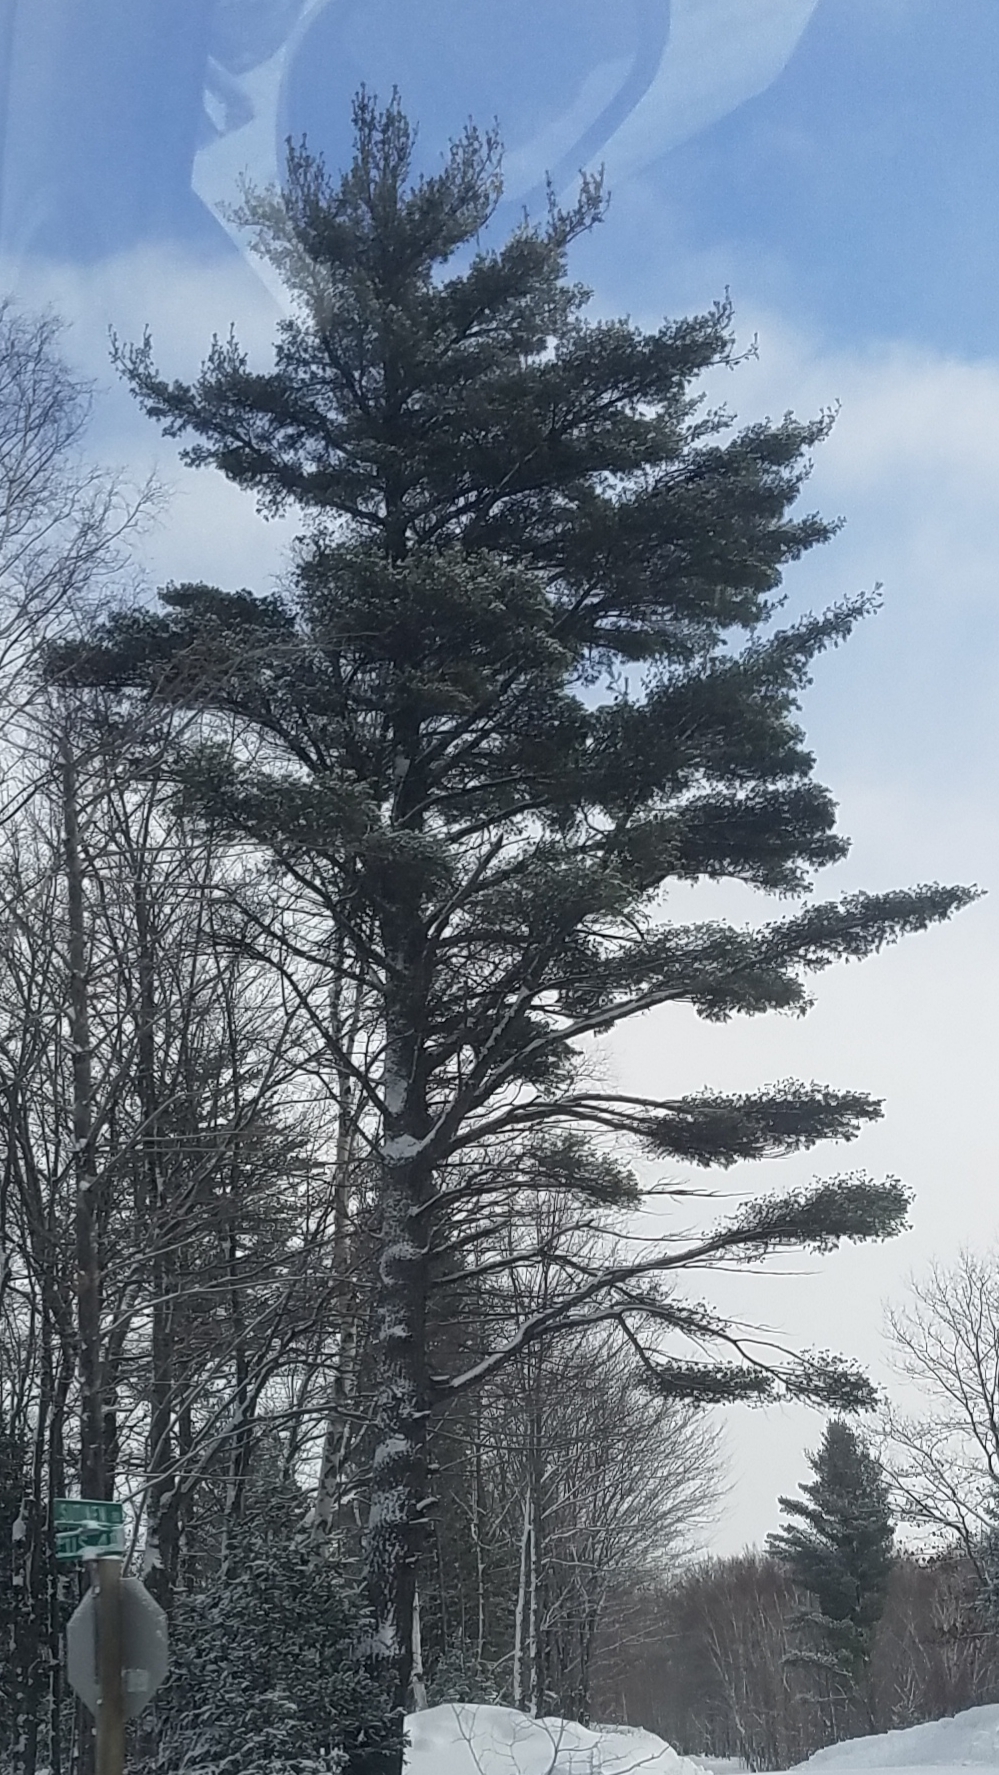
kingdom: Plantae
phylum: Tracheophyta
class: Pinopsida
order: Pinales
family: Pinaceae
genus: Pinus
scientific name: Pinus strobus
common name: Weymouth pine
